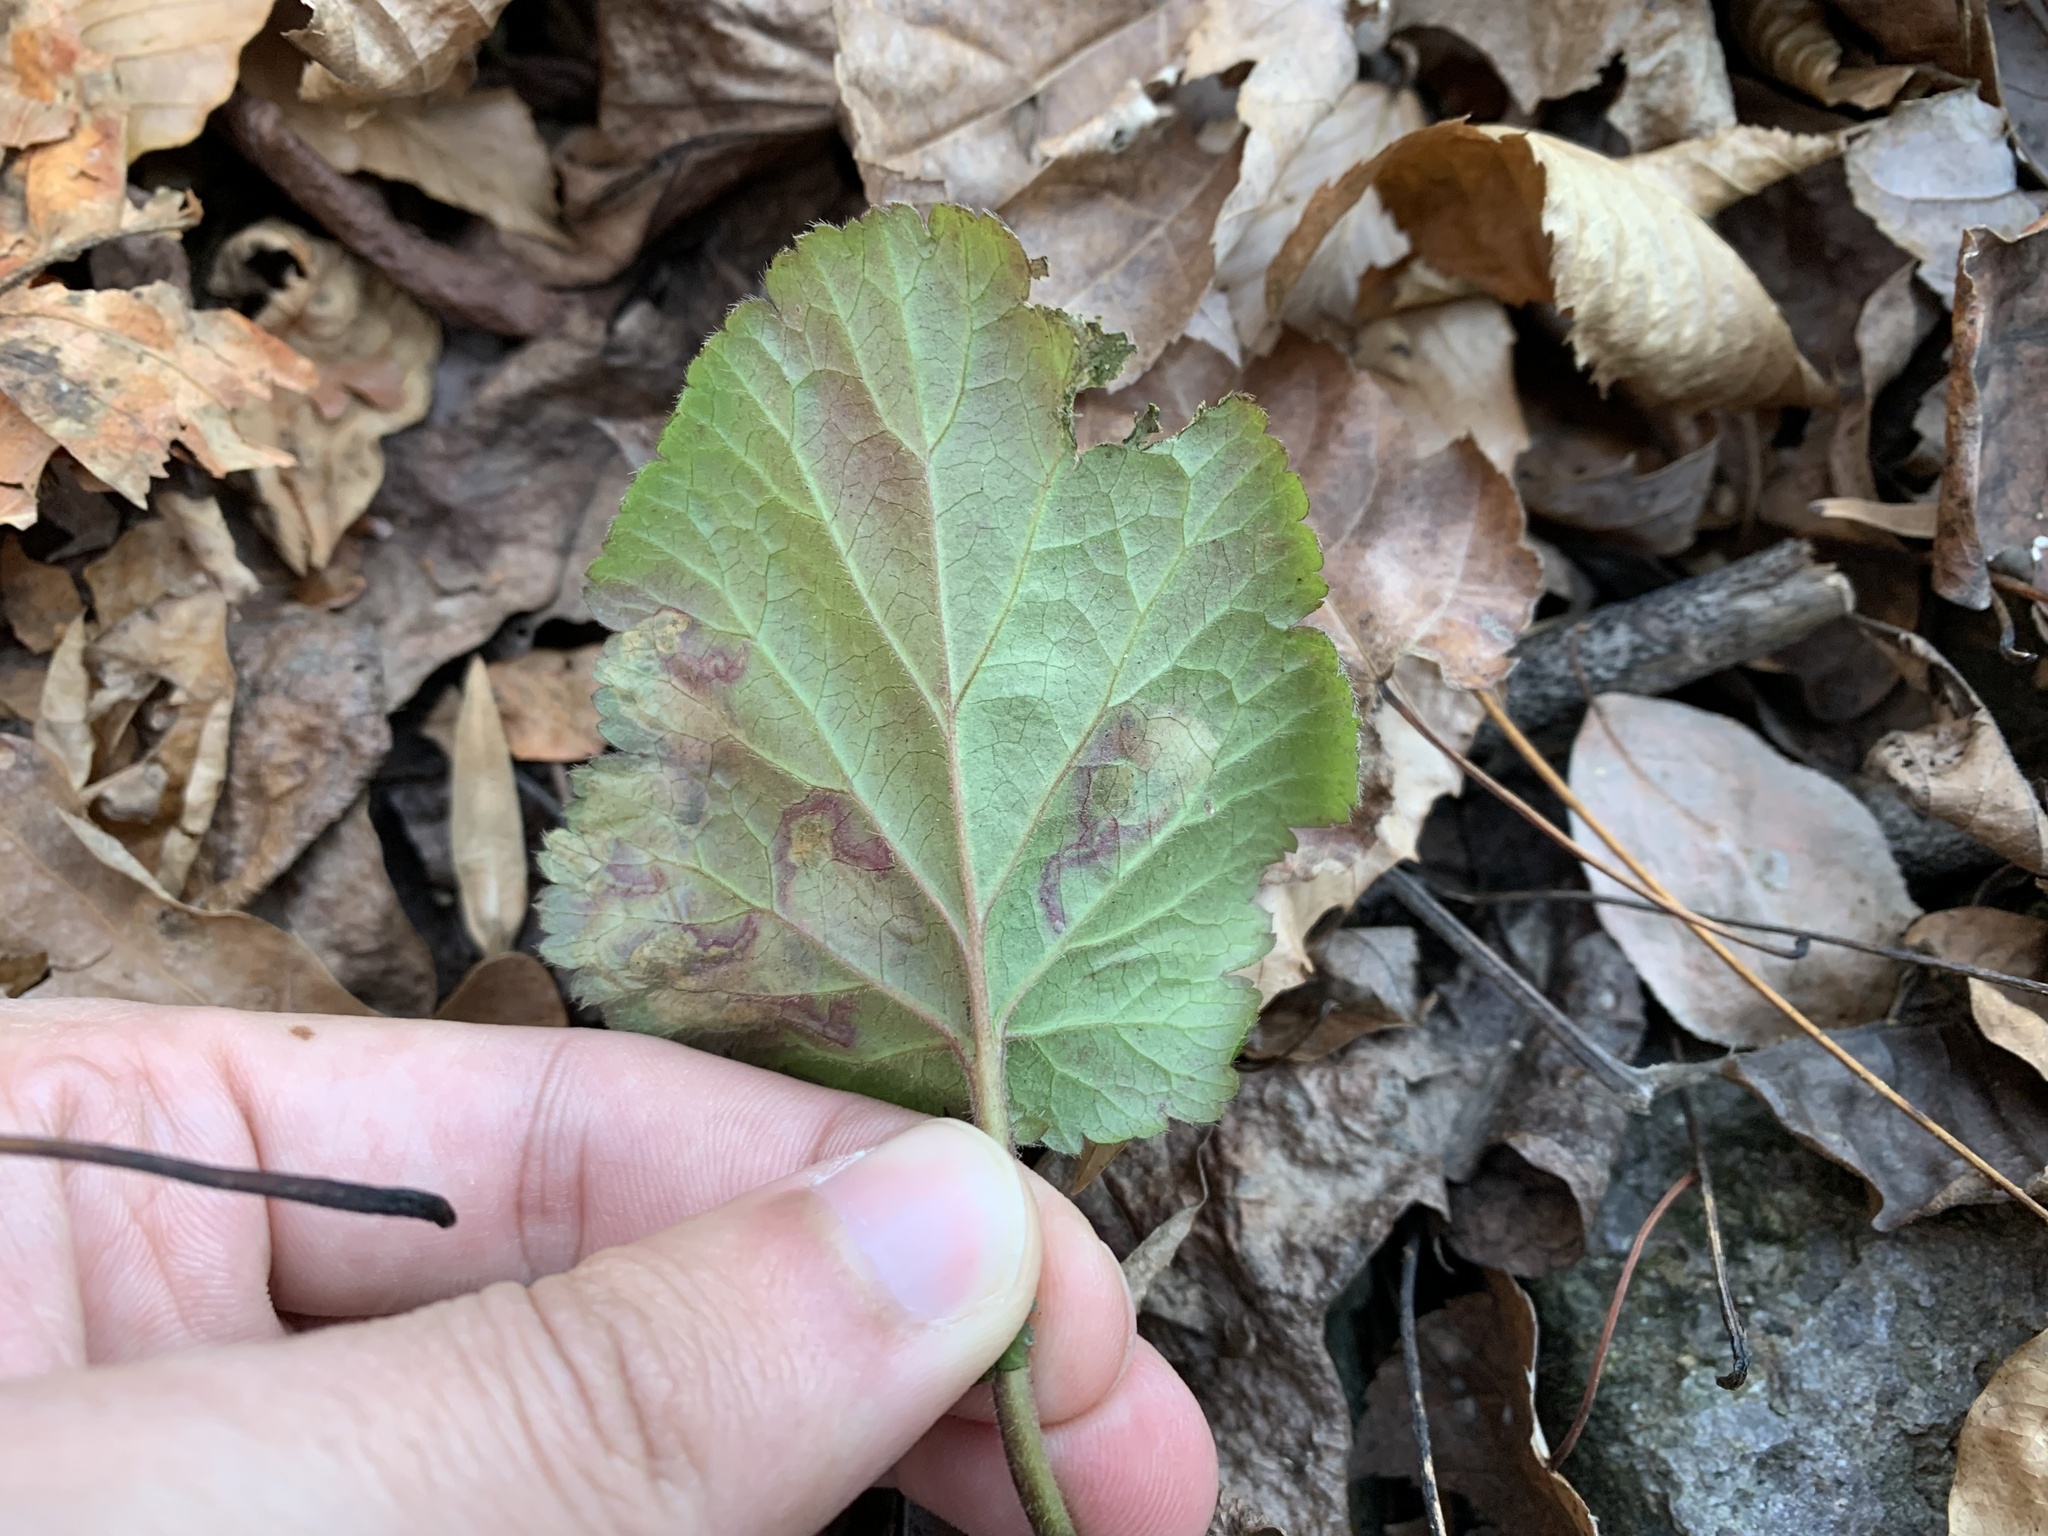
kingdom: Animalia
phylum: Arthropoda
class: Insecta
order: Hymenoptera
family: Tenthredinidae
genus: Metallus
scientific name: Metallus lanceolatus
